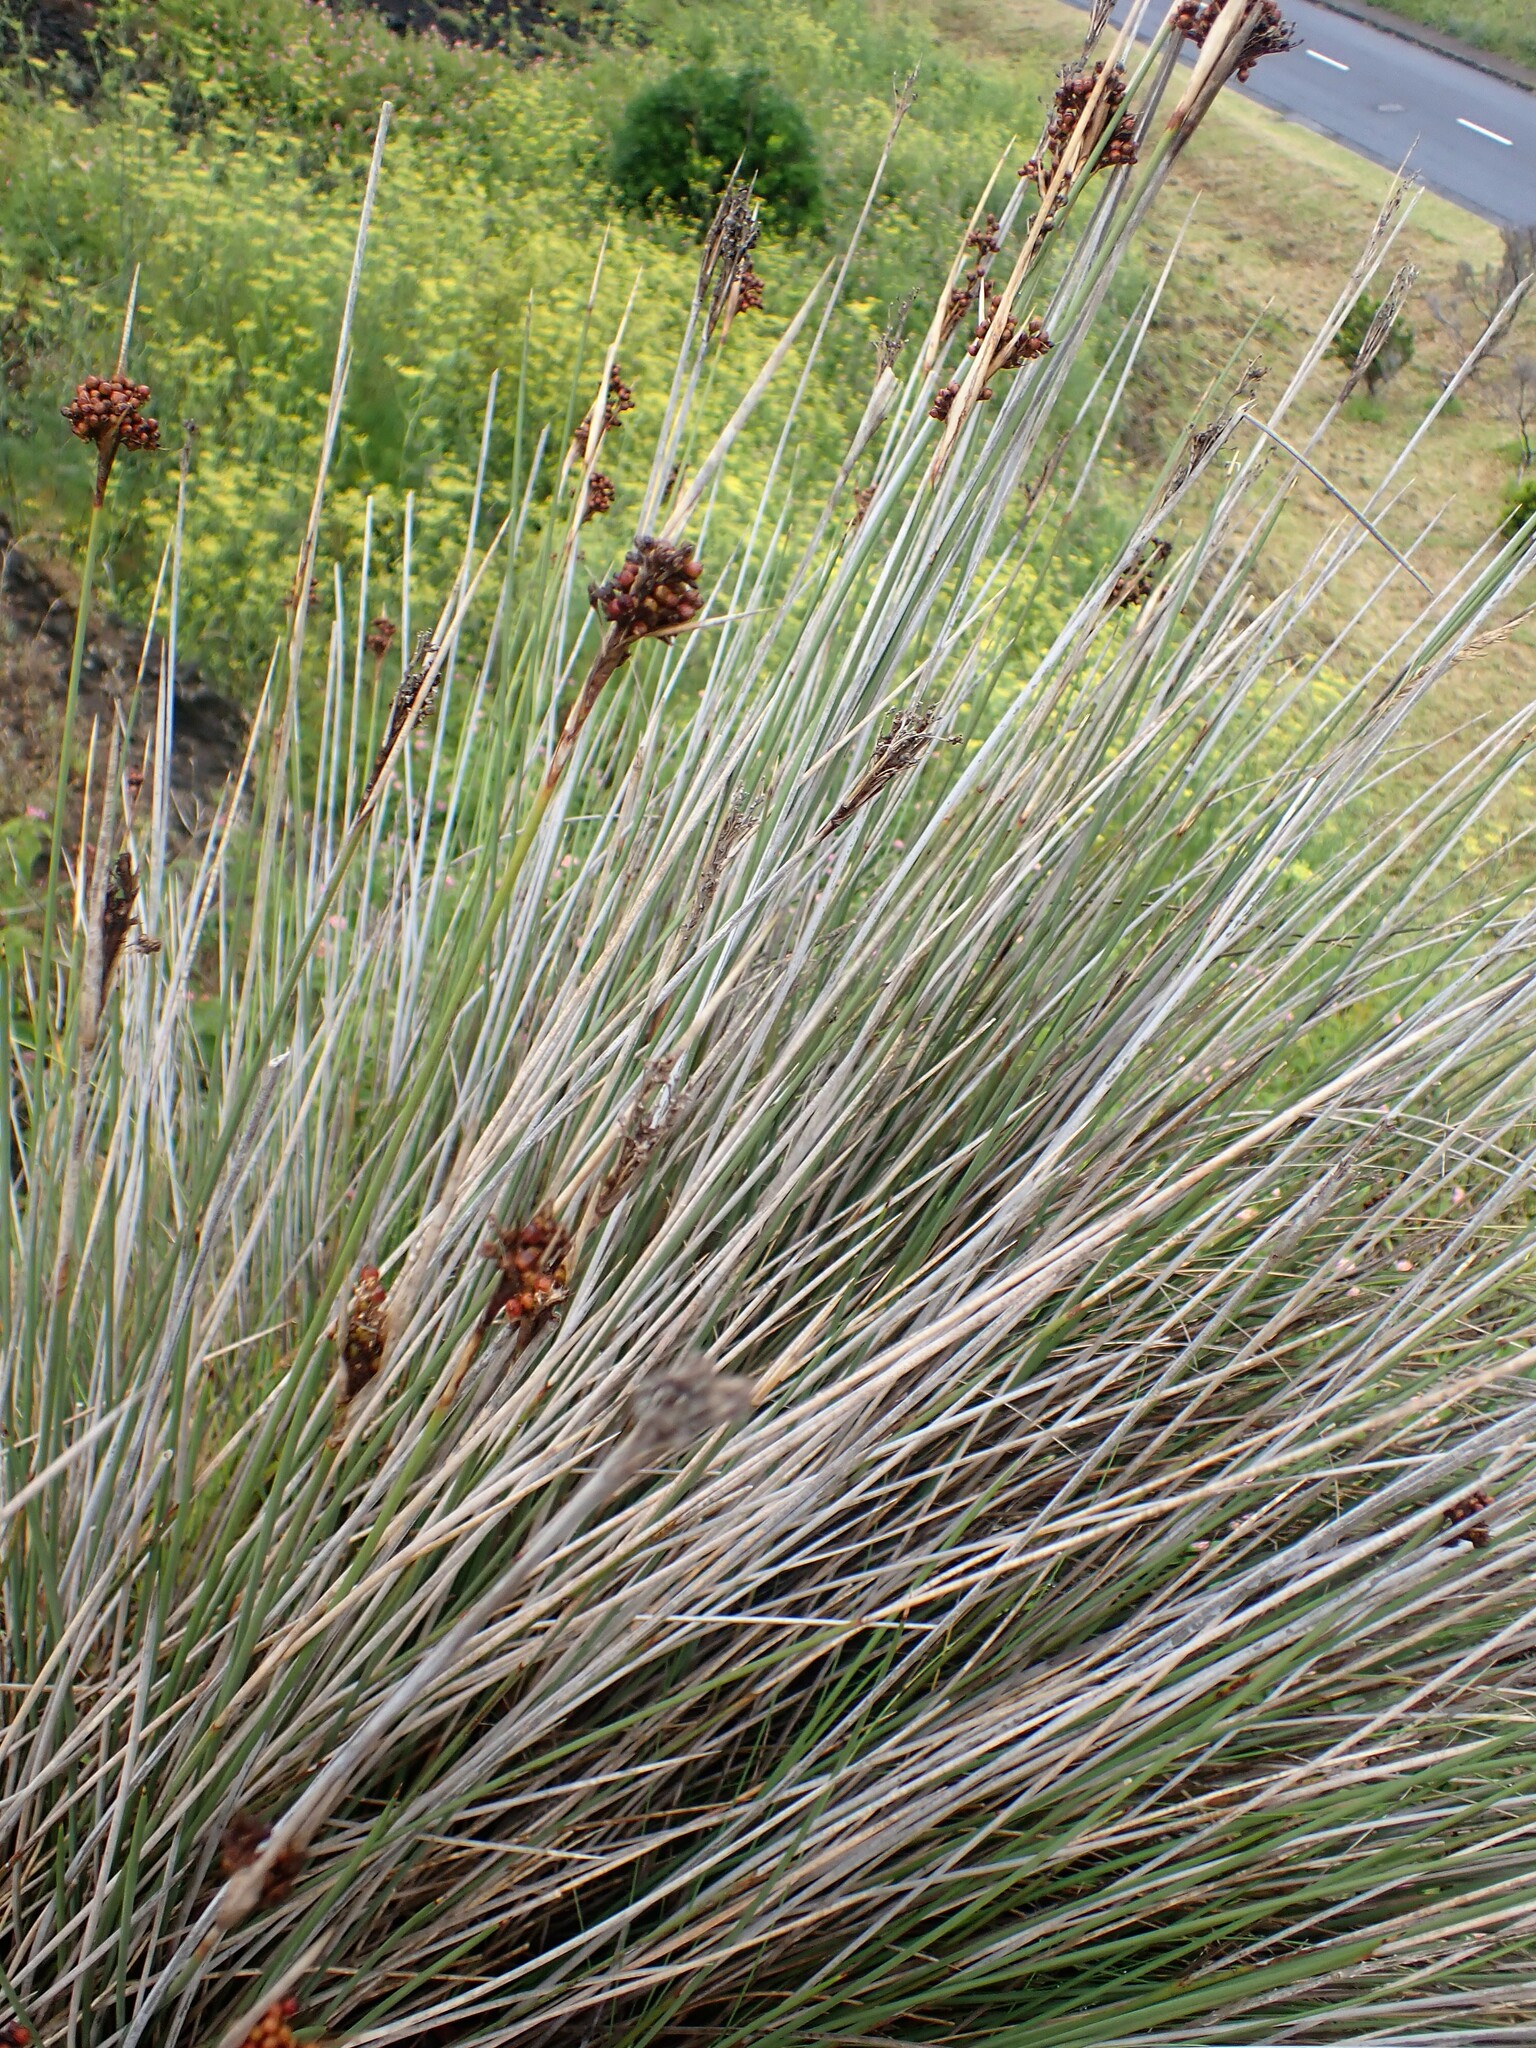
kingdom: Plantae
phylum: Tracheophyta
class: Liliopsida
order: Poales
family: Juncaceae
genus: Juncus
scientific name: Juncus acutus
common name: Sharp rush
